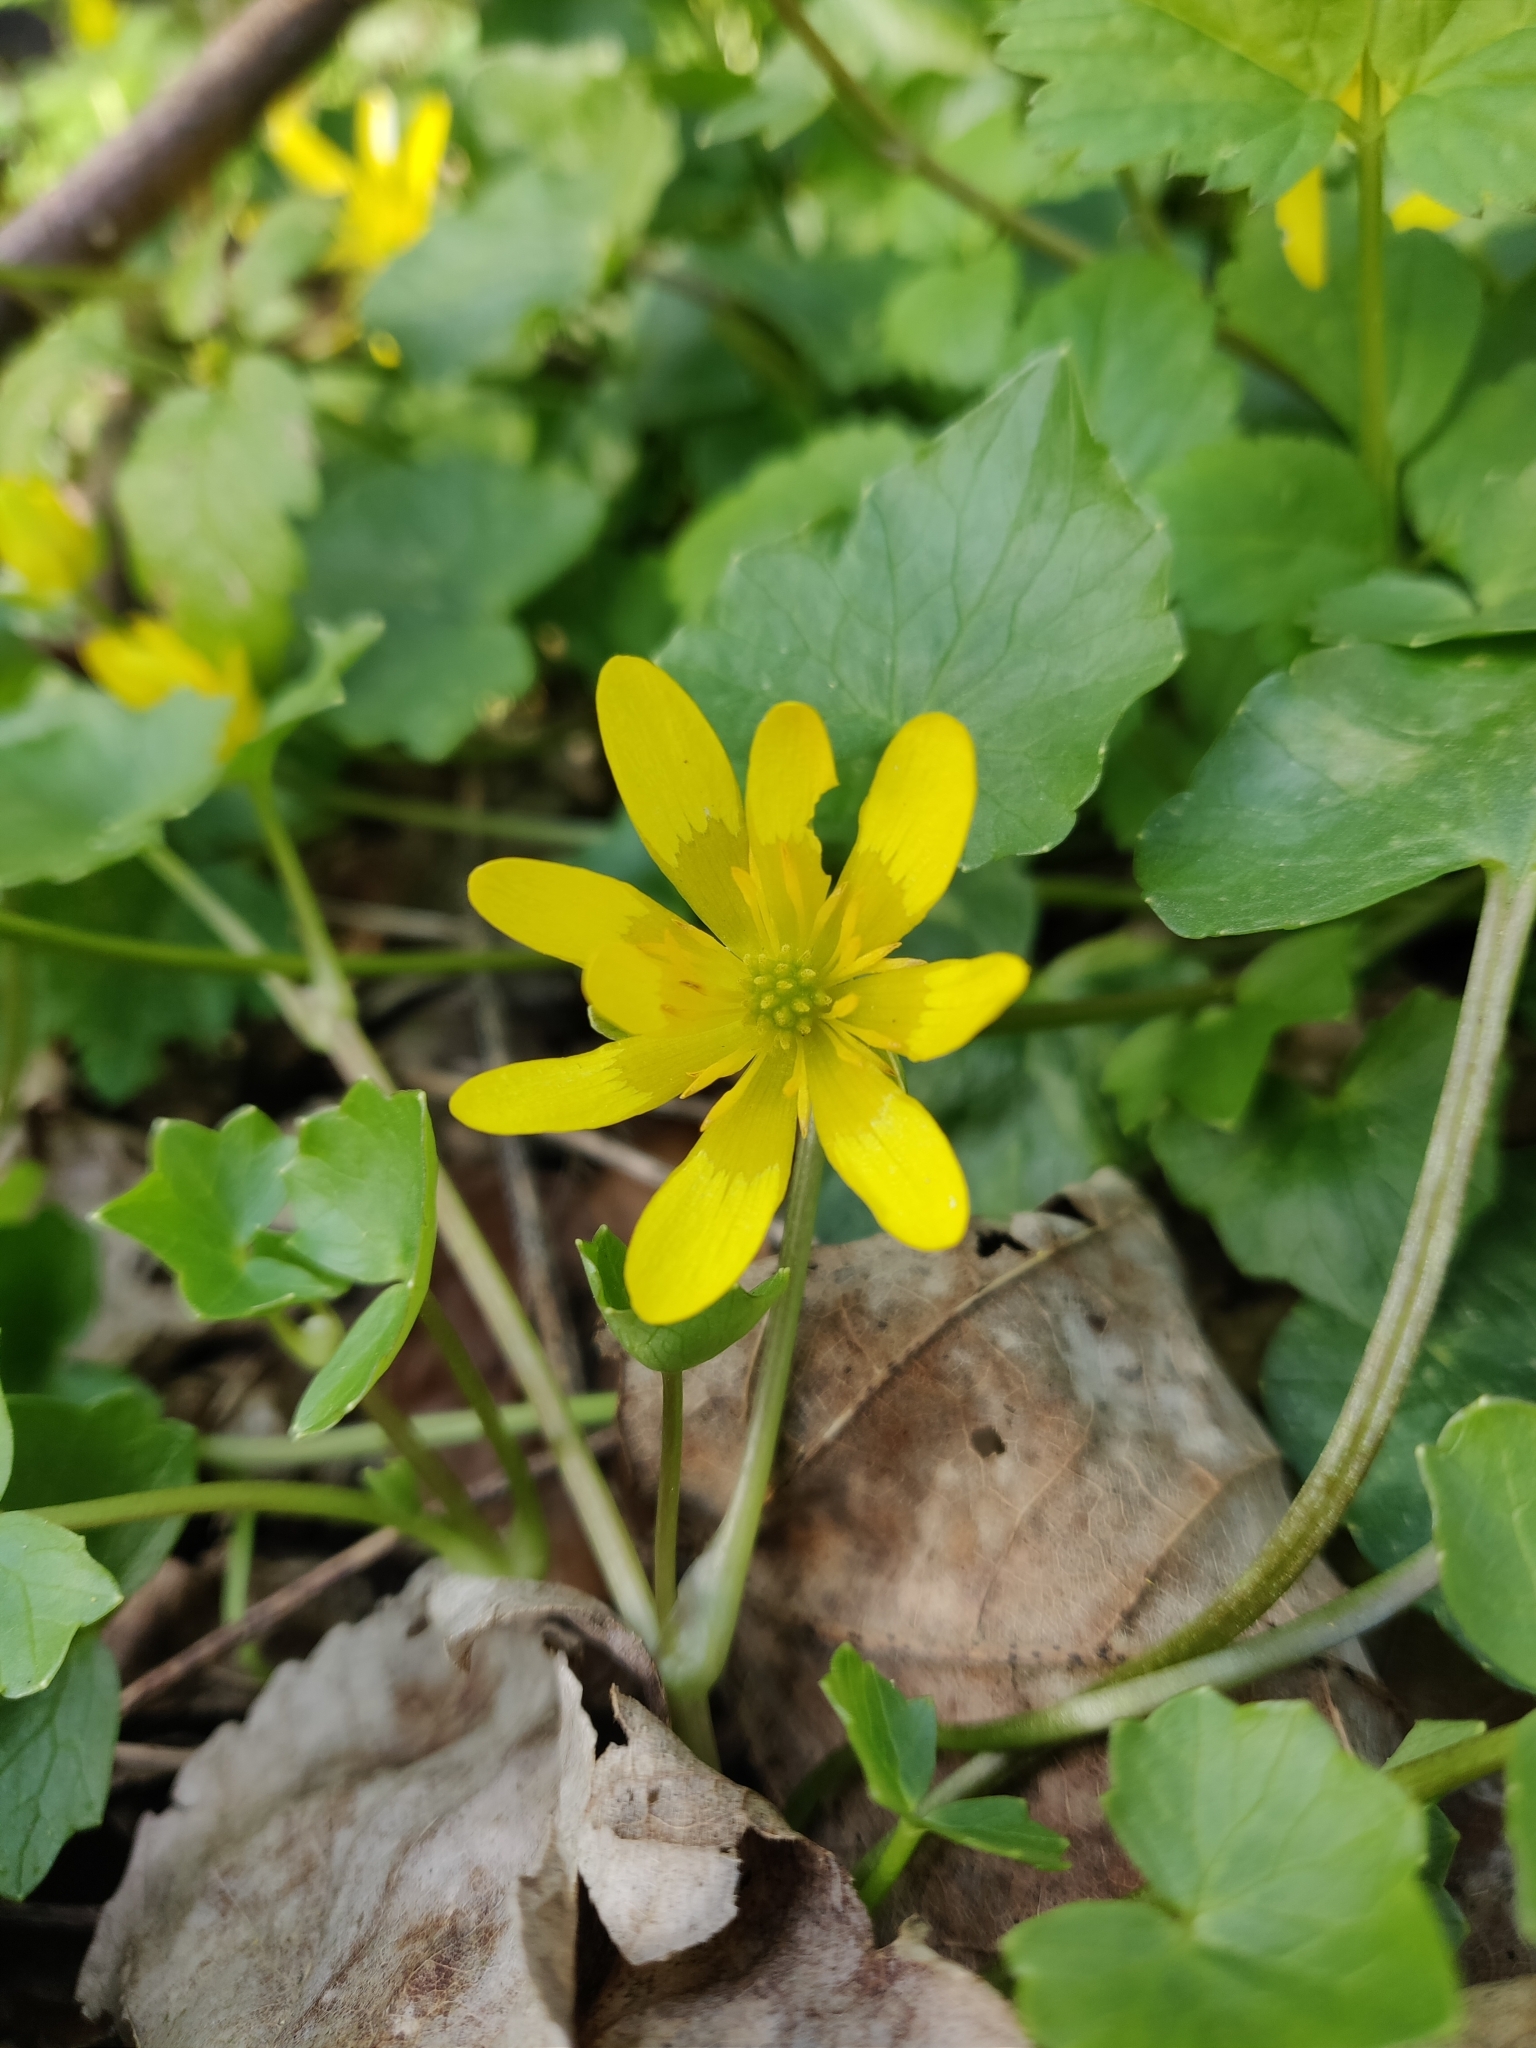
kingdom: Plantae
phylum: Tracheophyta
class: Magnoliopsida
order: Ranunculales
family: Ranunculaceae
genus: Ficaria
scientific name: Ficaria verna
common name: Lesser celandine
